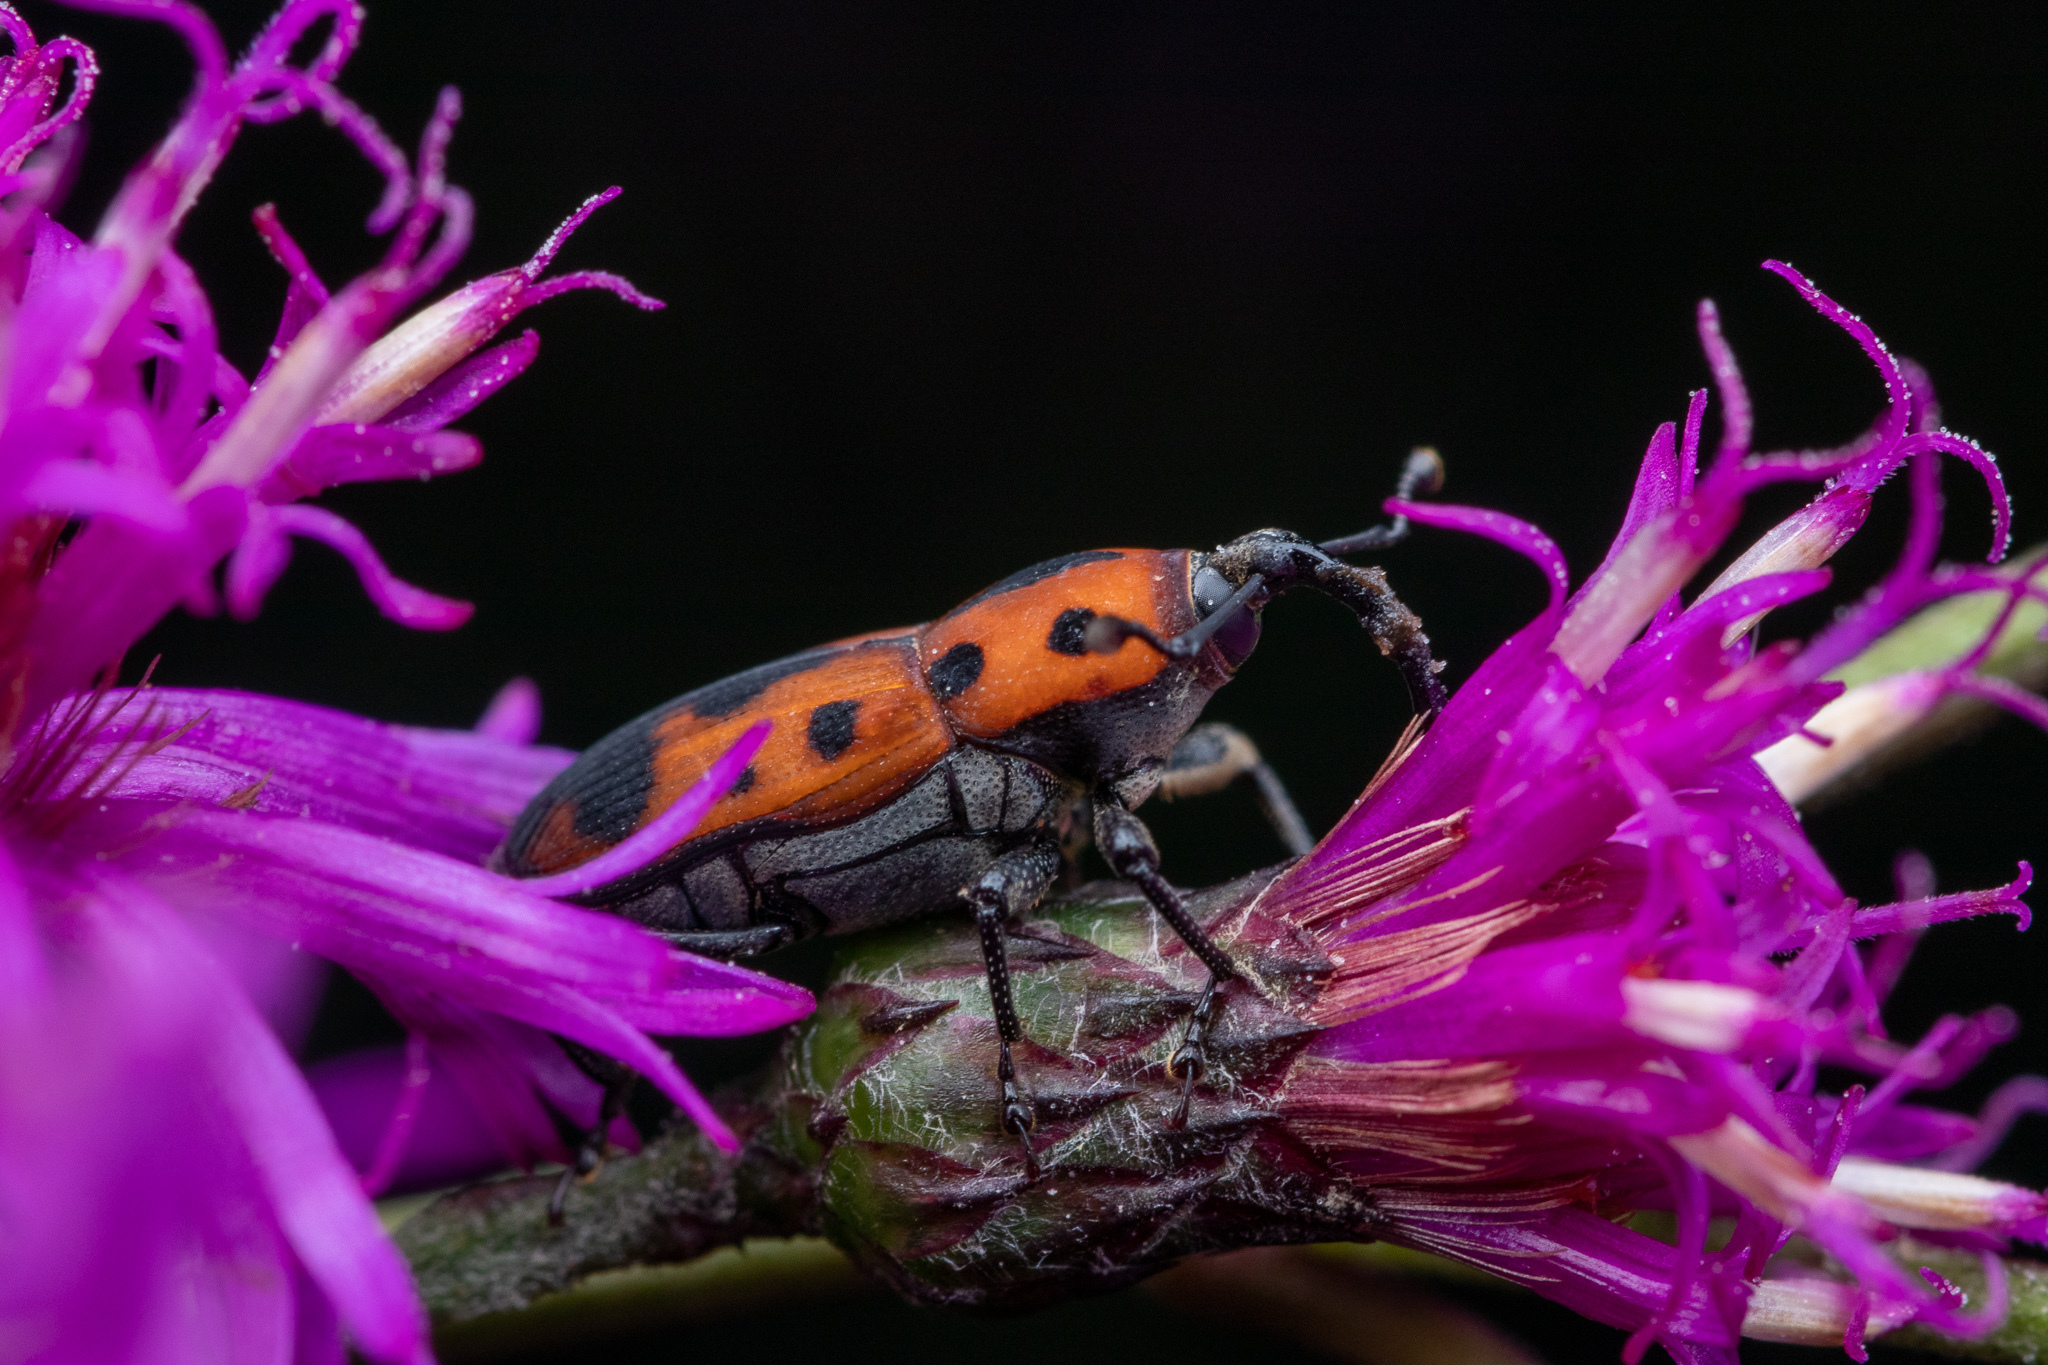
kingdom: Animalia
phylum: Arthropoda
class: Insecta
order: Coleoptera
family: Dryophthoridae
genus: Rhodobaenus
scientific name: Rhodobaenus quinquepunctatus
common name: Cocklebur weevil
